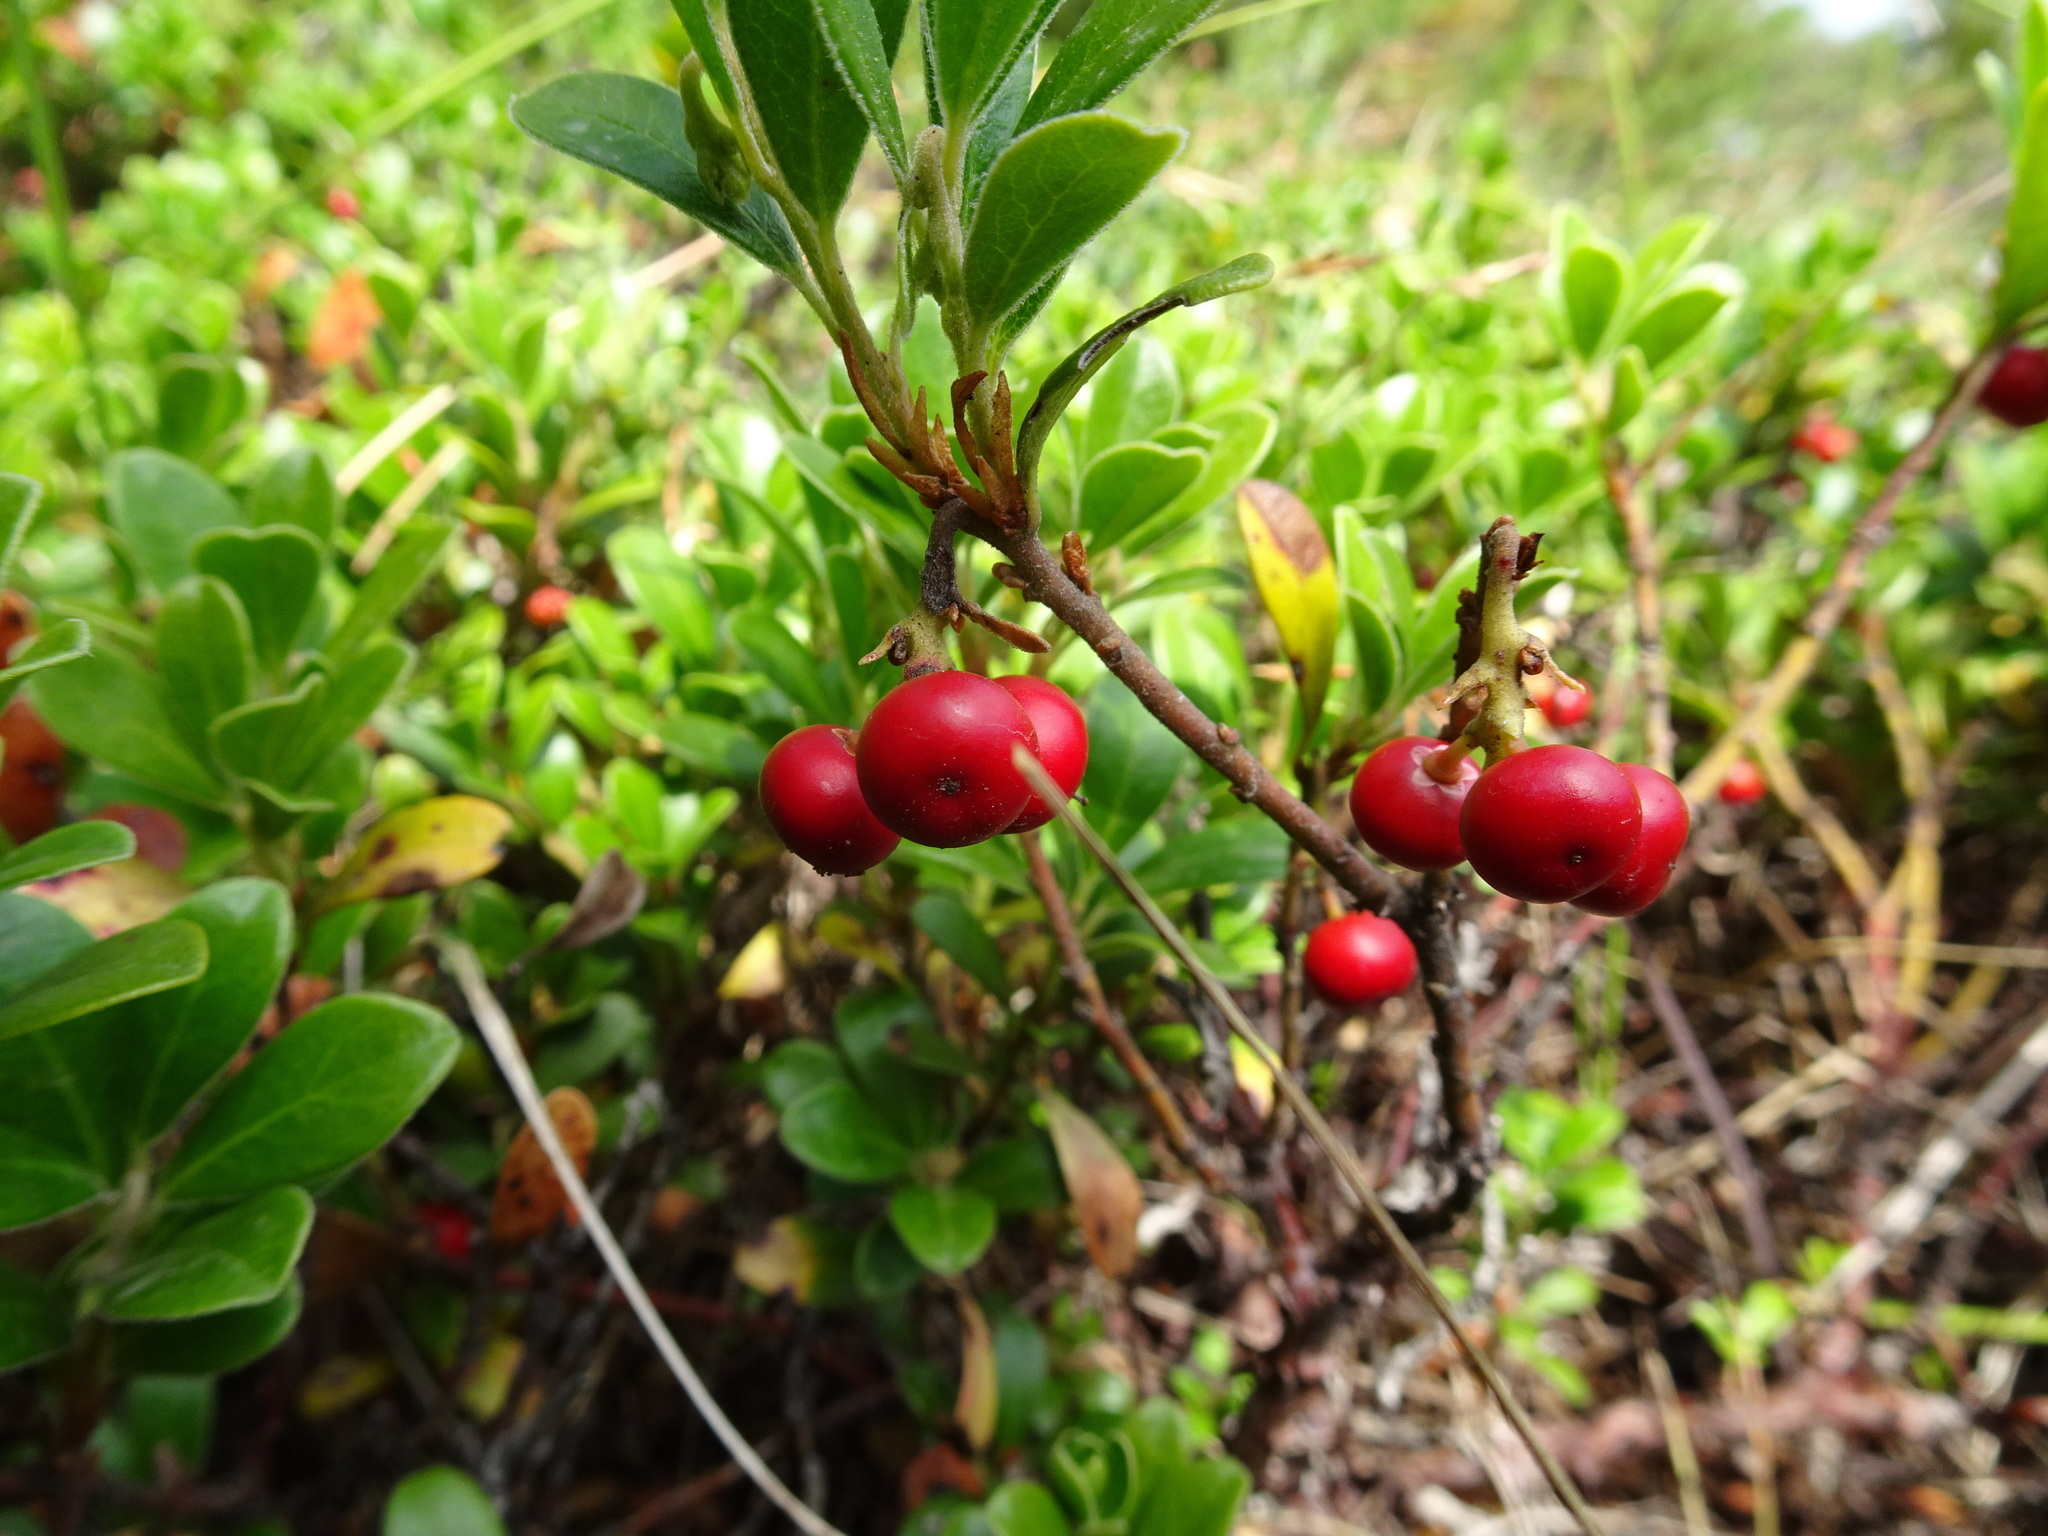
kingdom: Plantae
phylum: Tracheophyta
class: Magnoliopsida
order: Ericales
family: Ericaceae
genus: Arctostaphylos
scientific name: Arctostaphylos uva-ursi
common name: Bearberry
